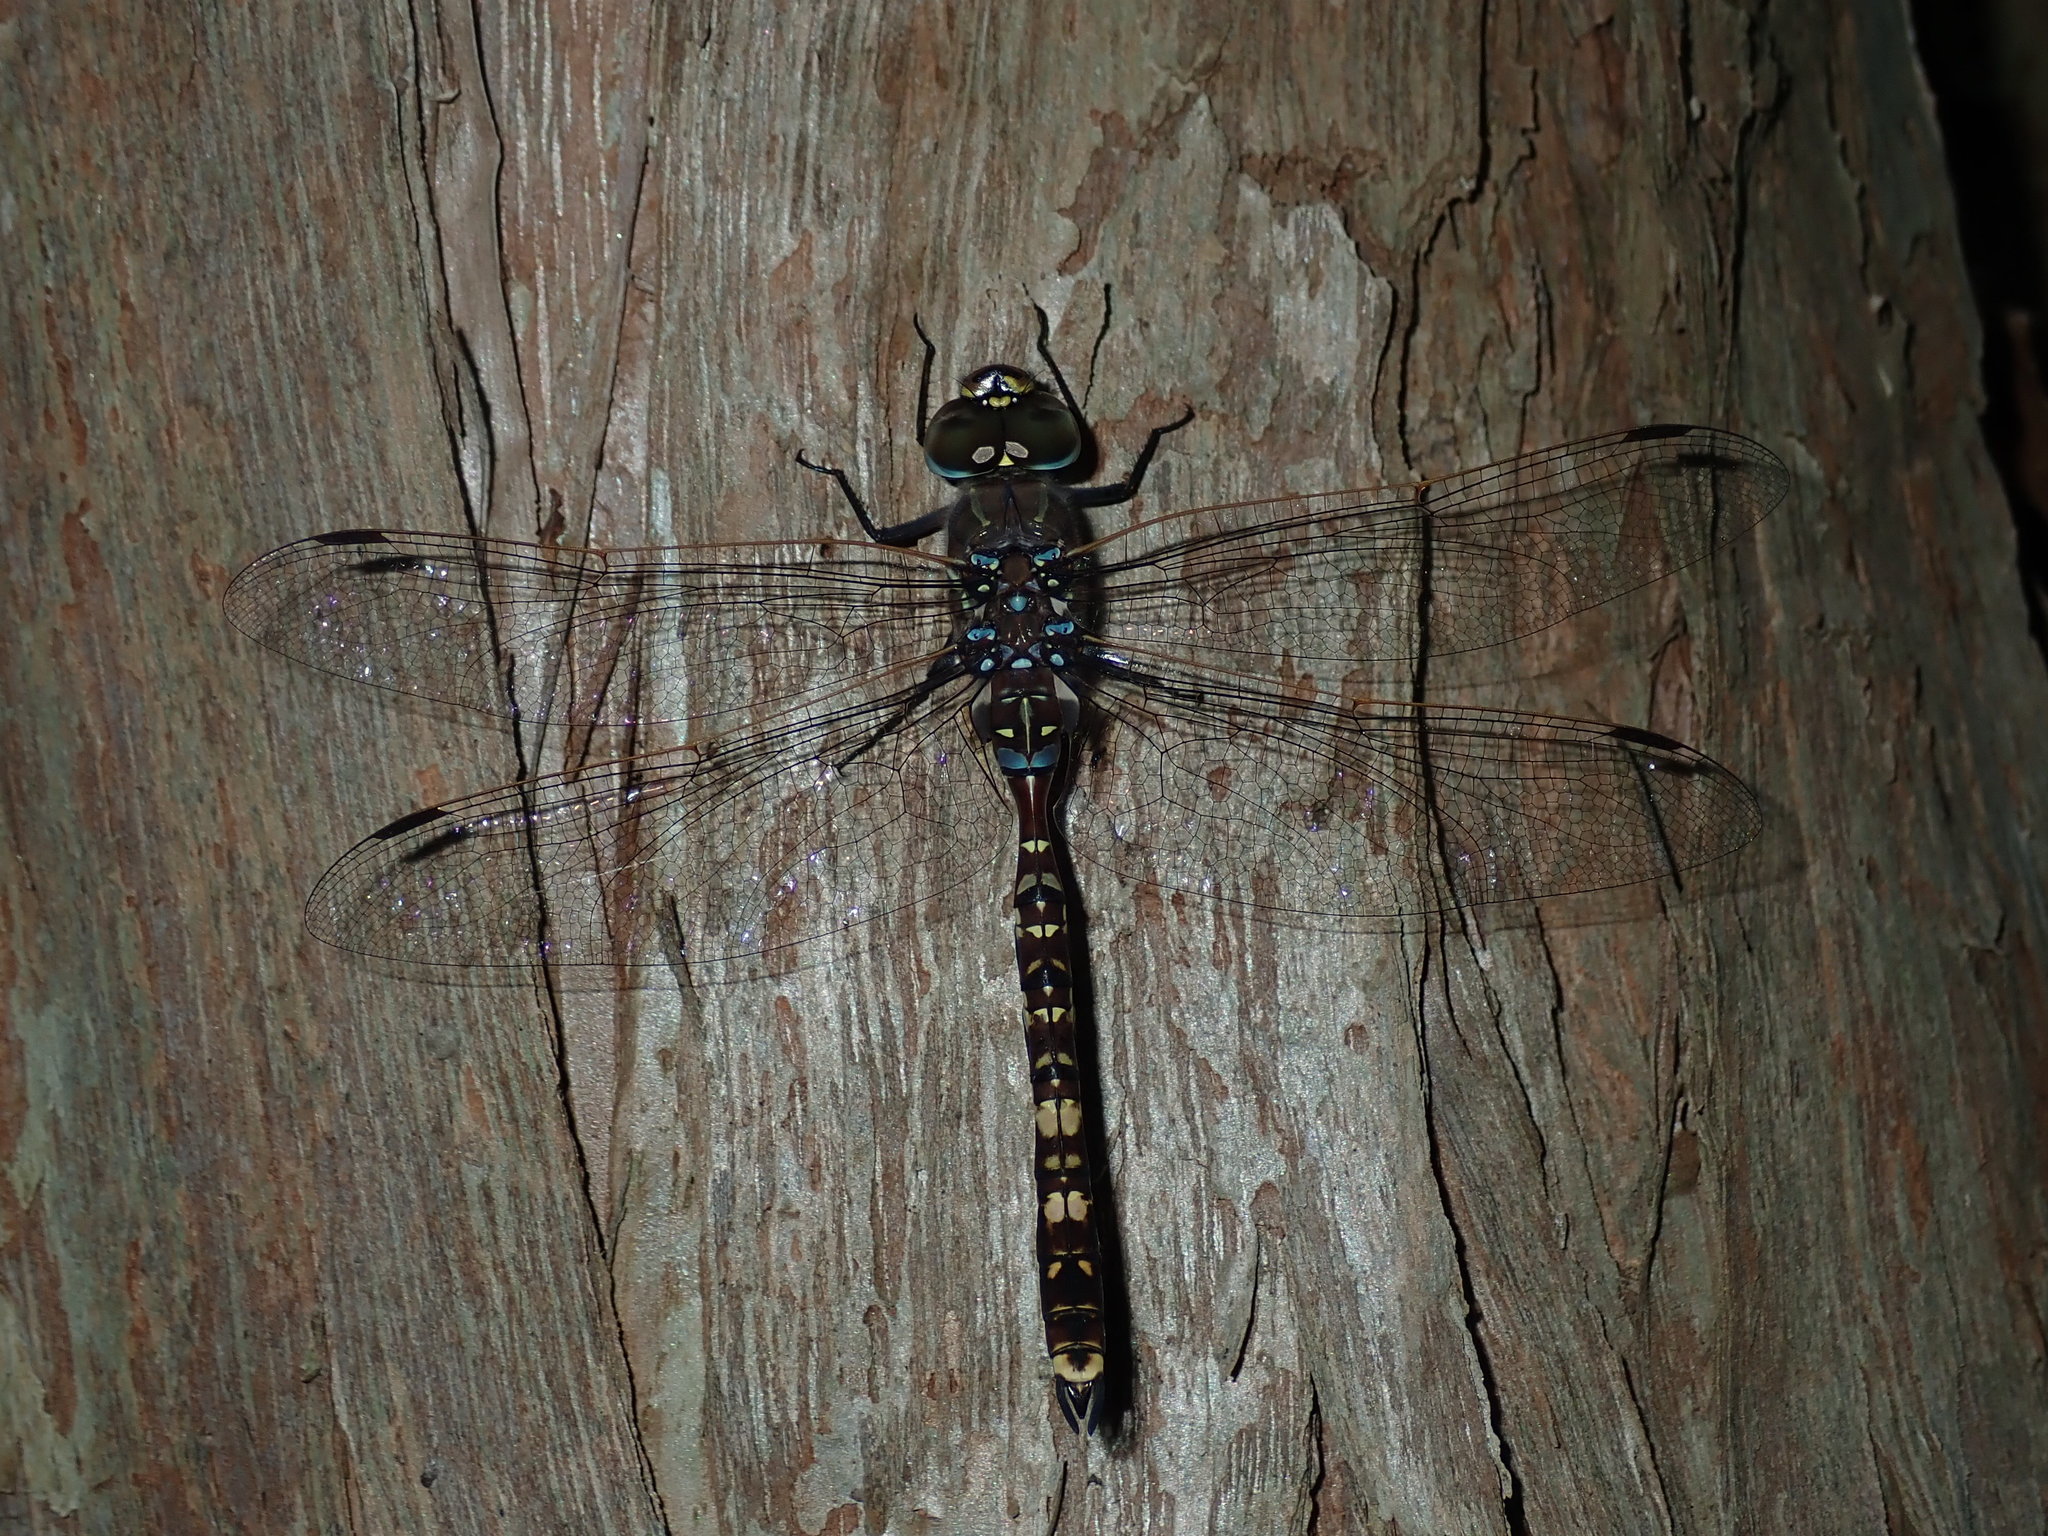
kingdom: Animalia
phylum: Arthropoda
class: Insecta
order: Odonata
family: Aeshnidae
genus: Aeshna
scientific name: Aeshna brevistyla
